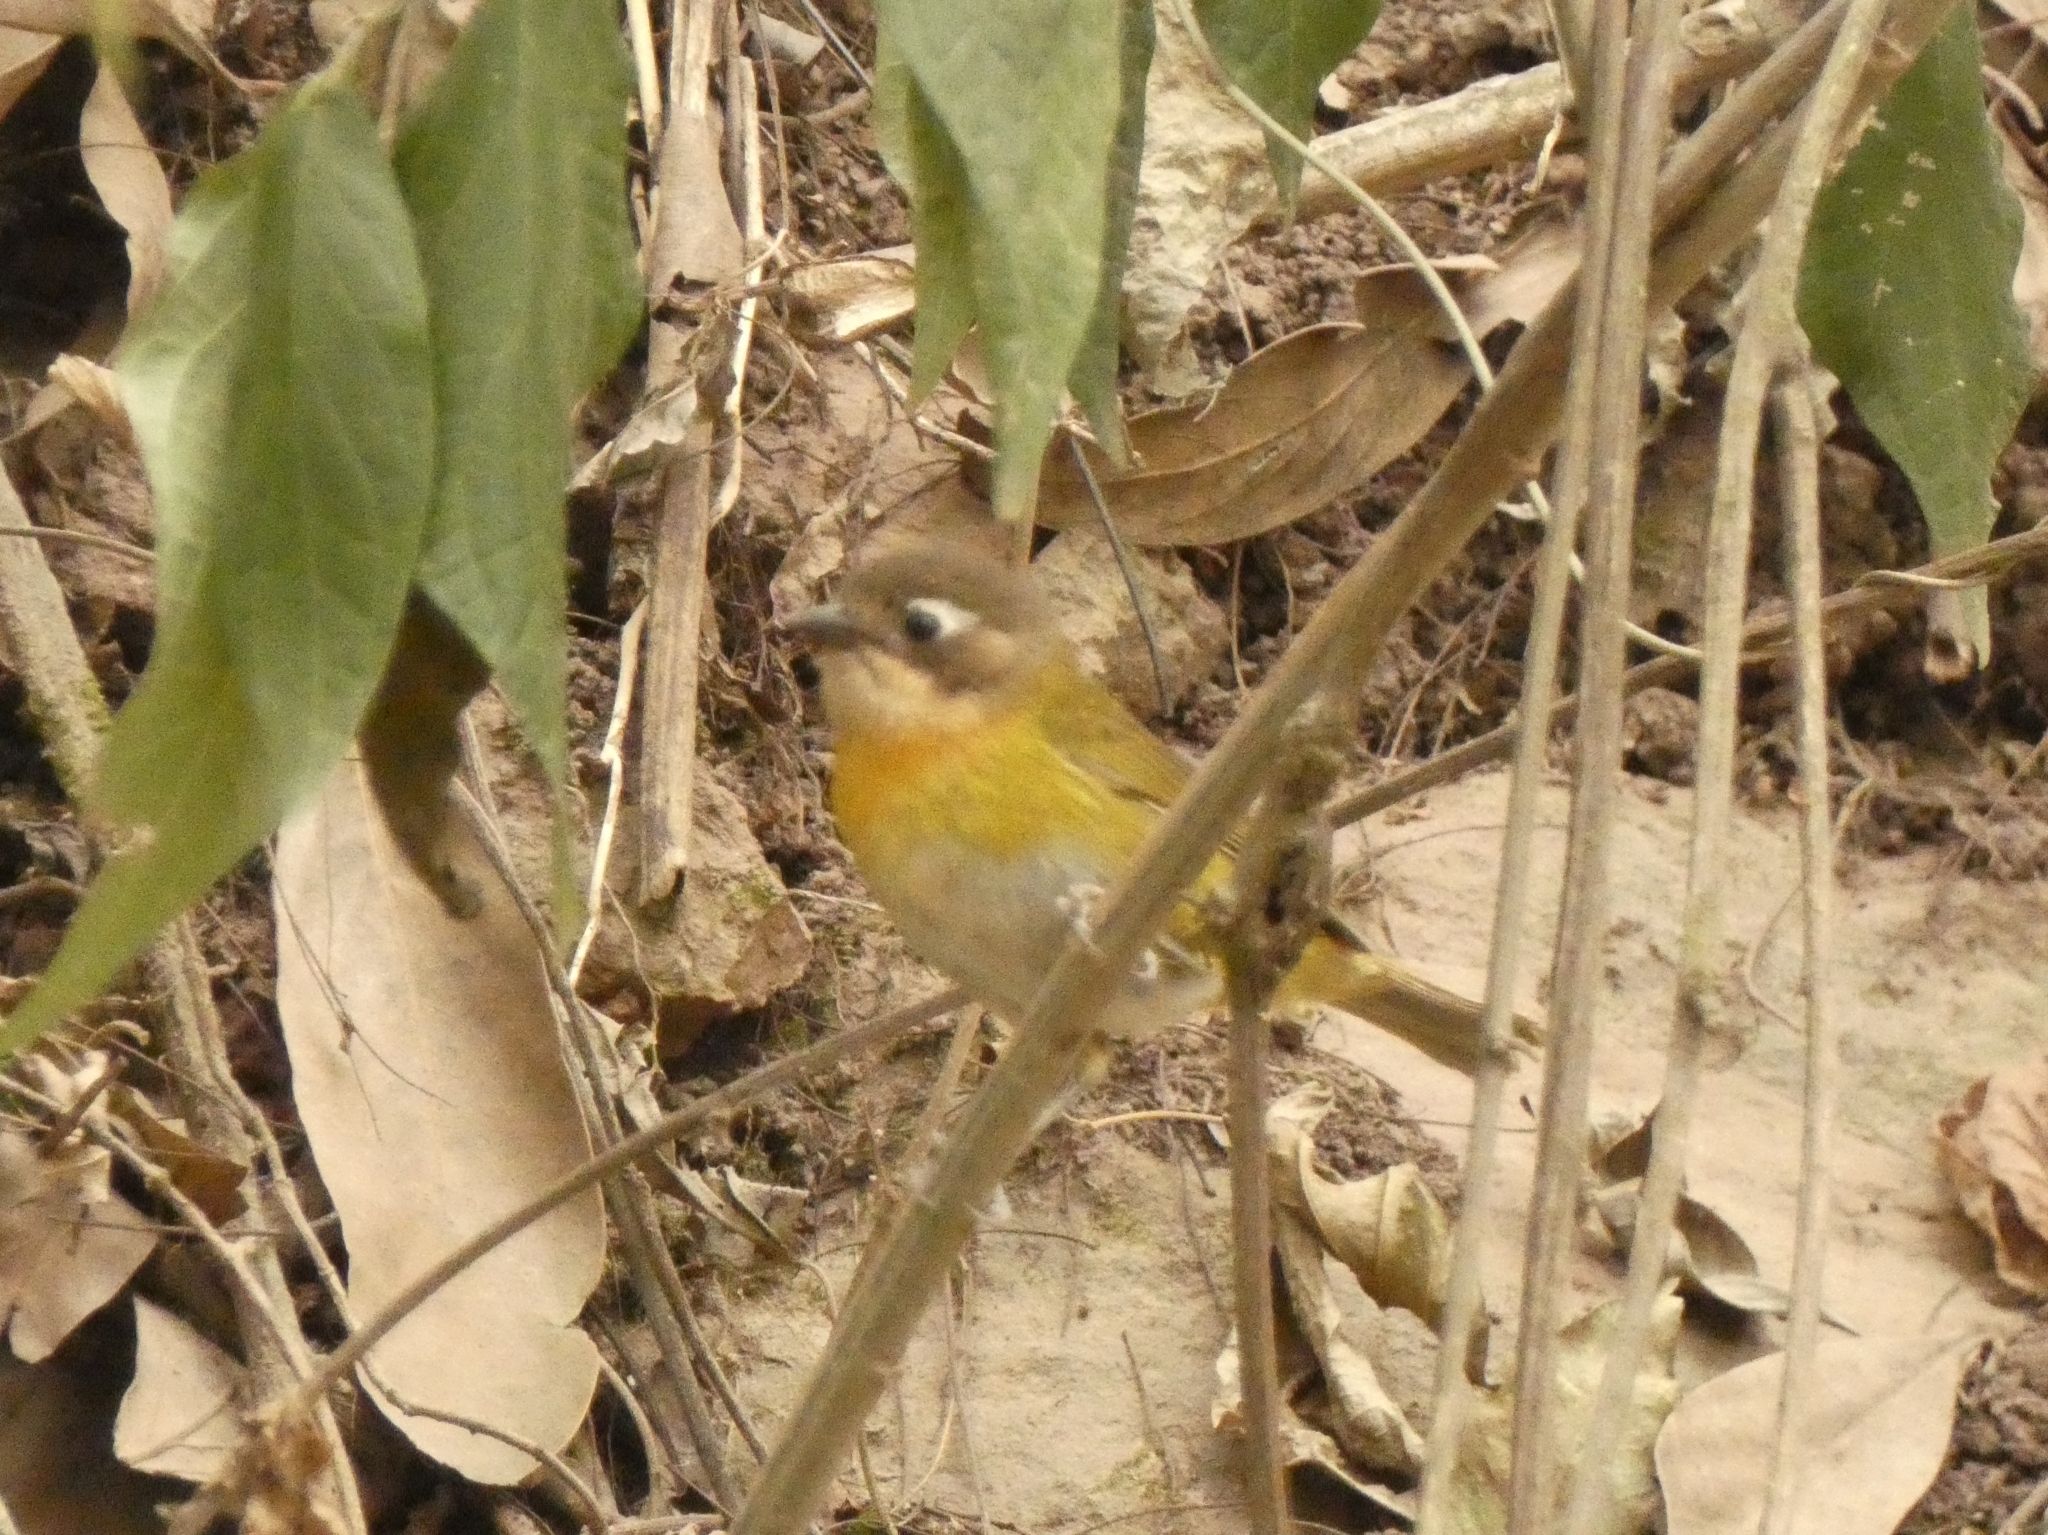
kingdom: Animalia
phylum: Chordata
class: Aves
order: Passeriformes
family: Passerellidae
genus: Chlorospingus
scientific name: Chlorospingus flavopectus
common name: Common chlorospingus
